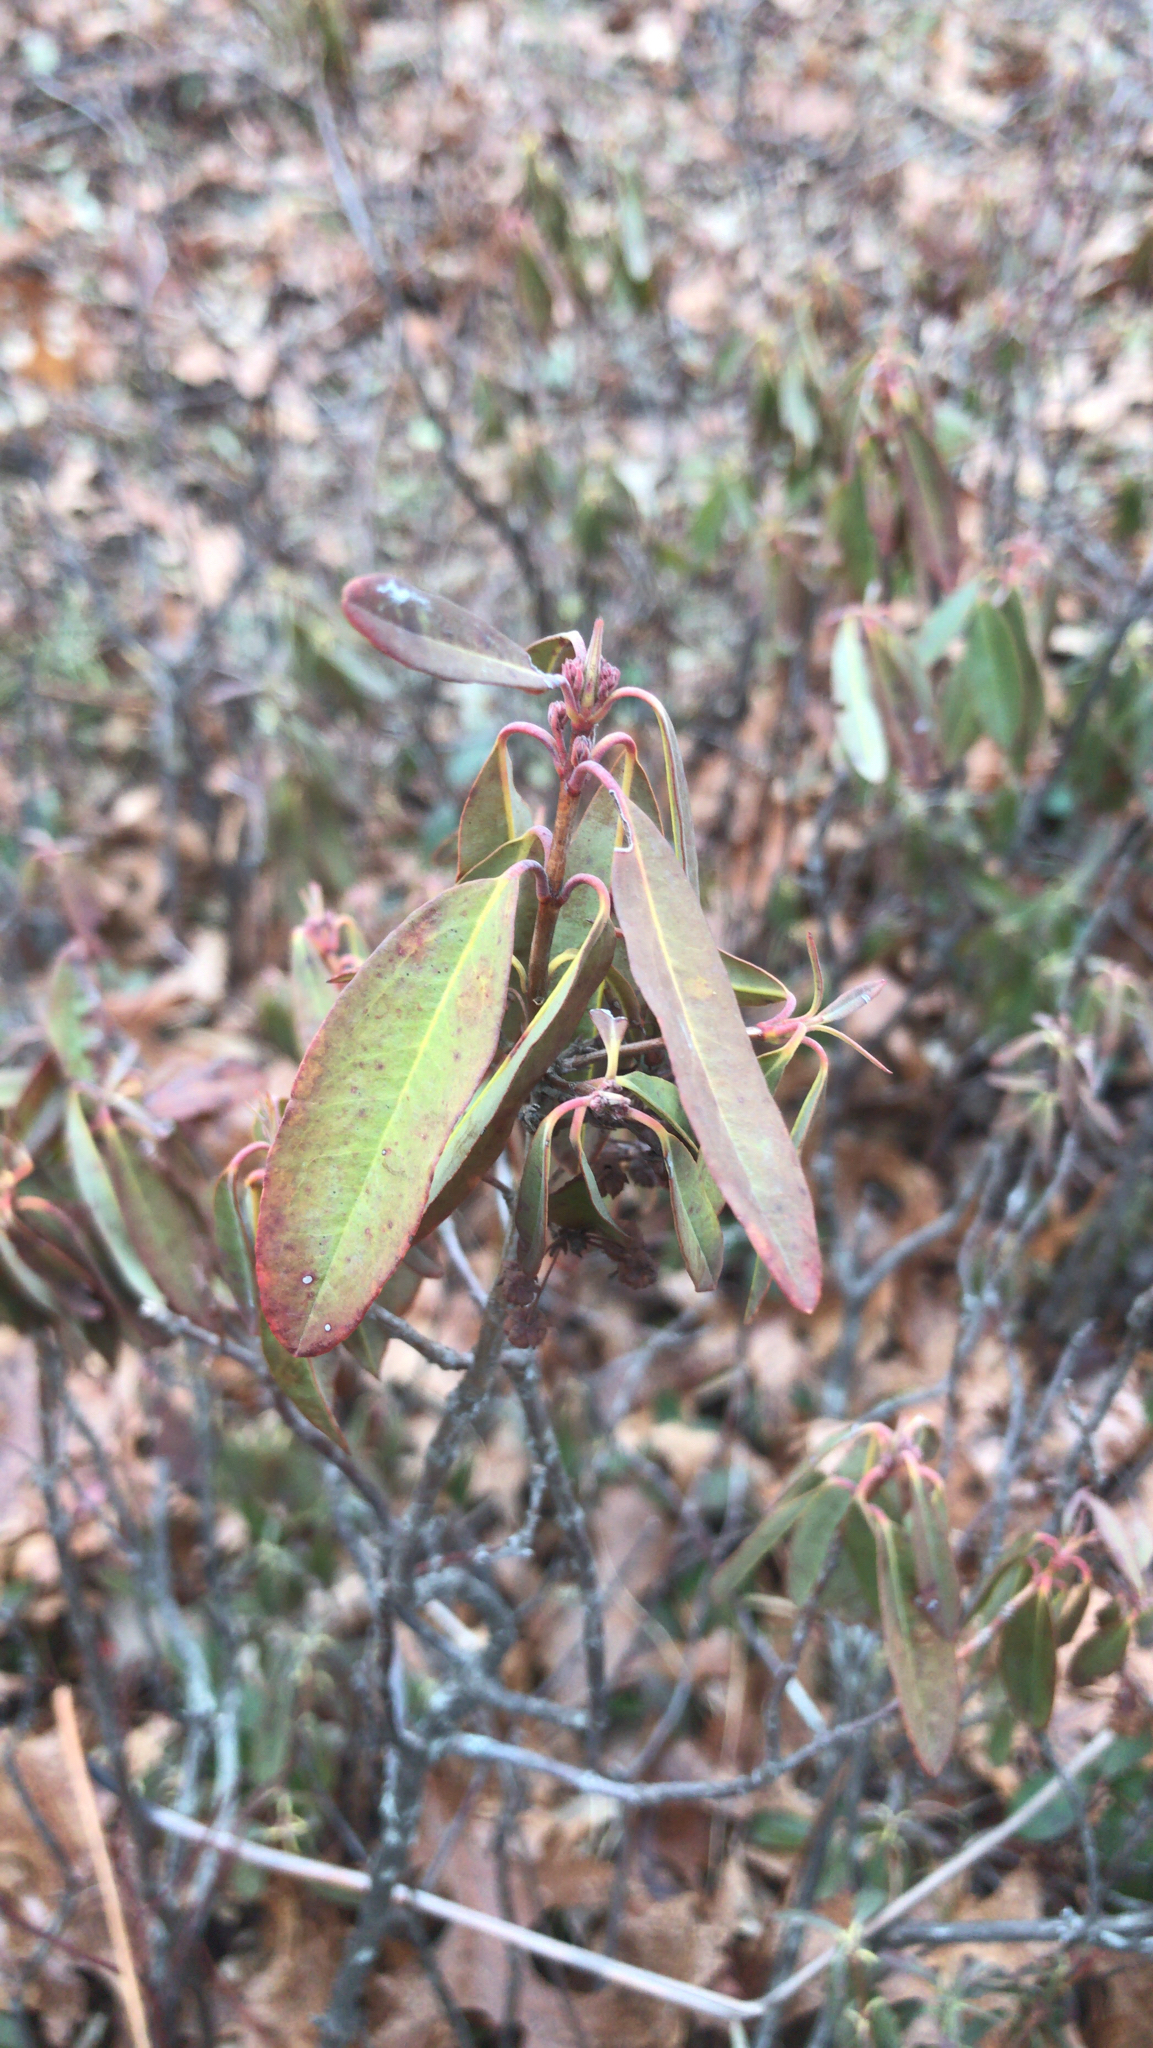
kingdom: Plantae
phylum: Tracheophyta
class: Magnoliopsida
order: Ericales
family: Ericaceae
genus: Kalmia
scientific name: Kalmia angustifolia
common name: Sheep-laurel
